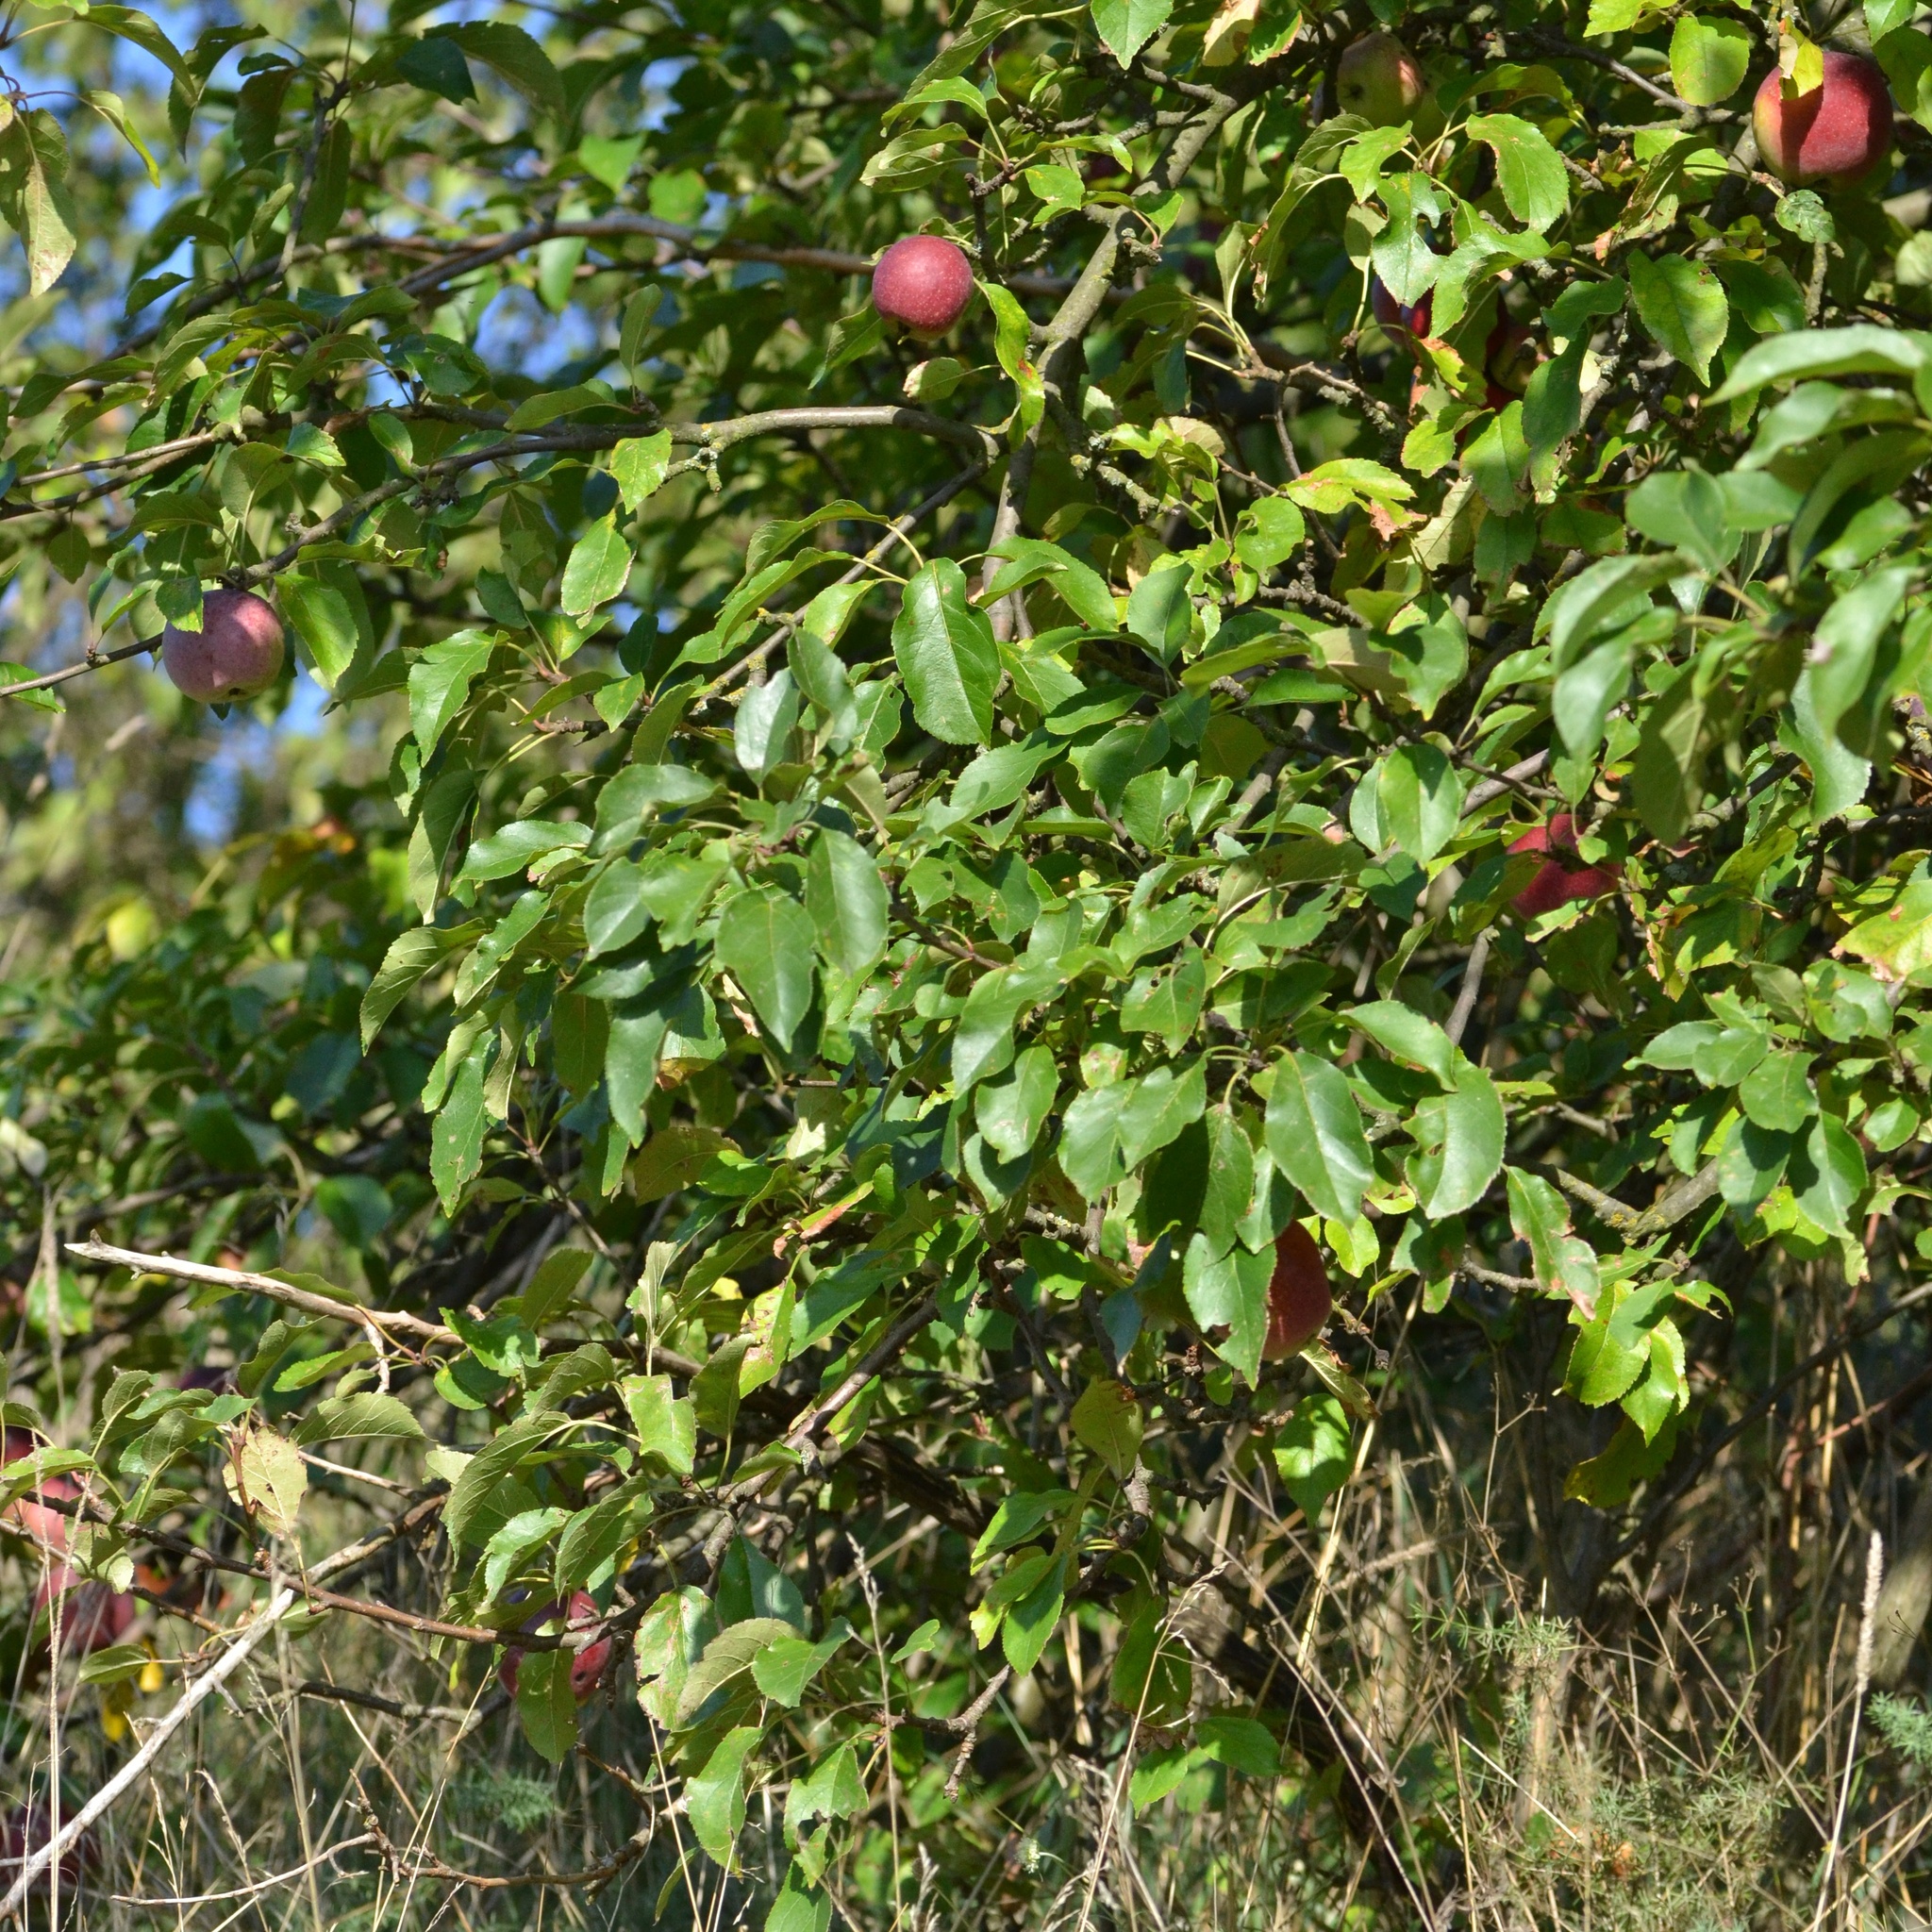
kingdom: Plantae
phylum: Tracheophyta
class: Magnoliopsida
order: Rosales
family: Rosaceae
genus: Malus
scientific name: Malus domestica
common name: Apple
